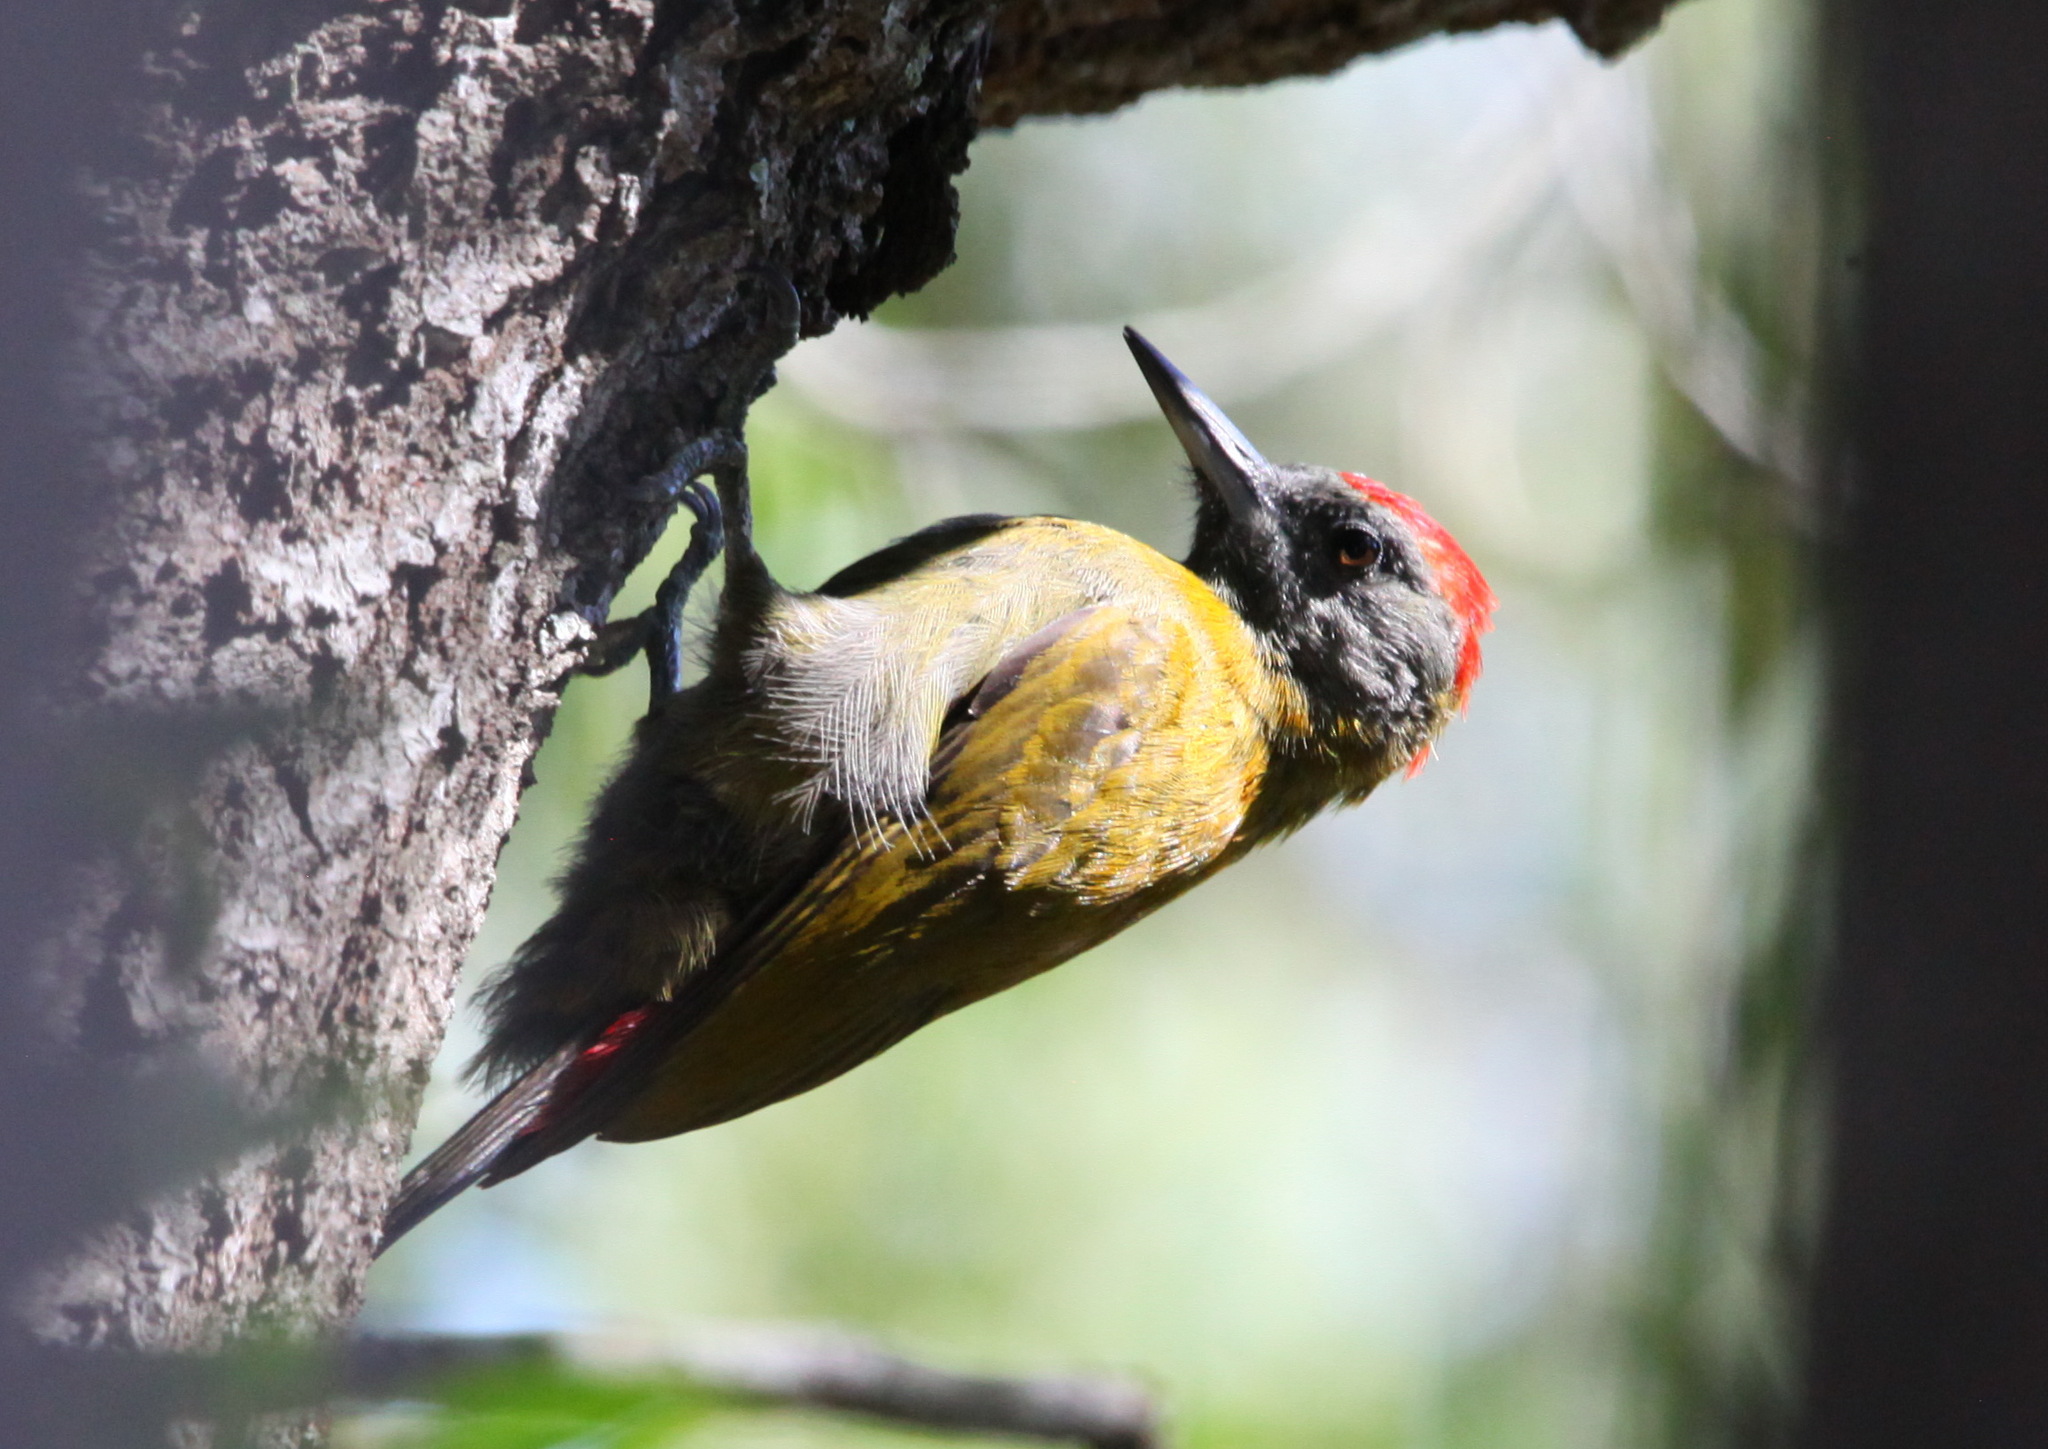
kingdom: Animalia
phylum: Chordata
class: Aves
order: Piciformes
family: Picidae
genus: Dendropicos
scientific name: Dendropicos griseocephalus
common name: Olive woodpecker
